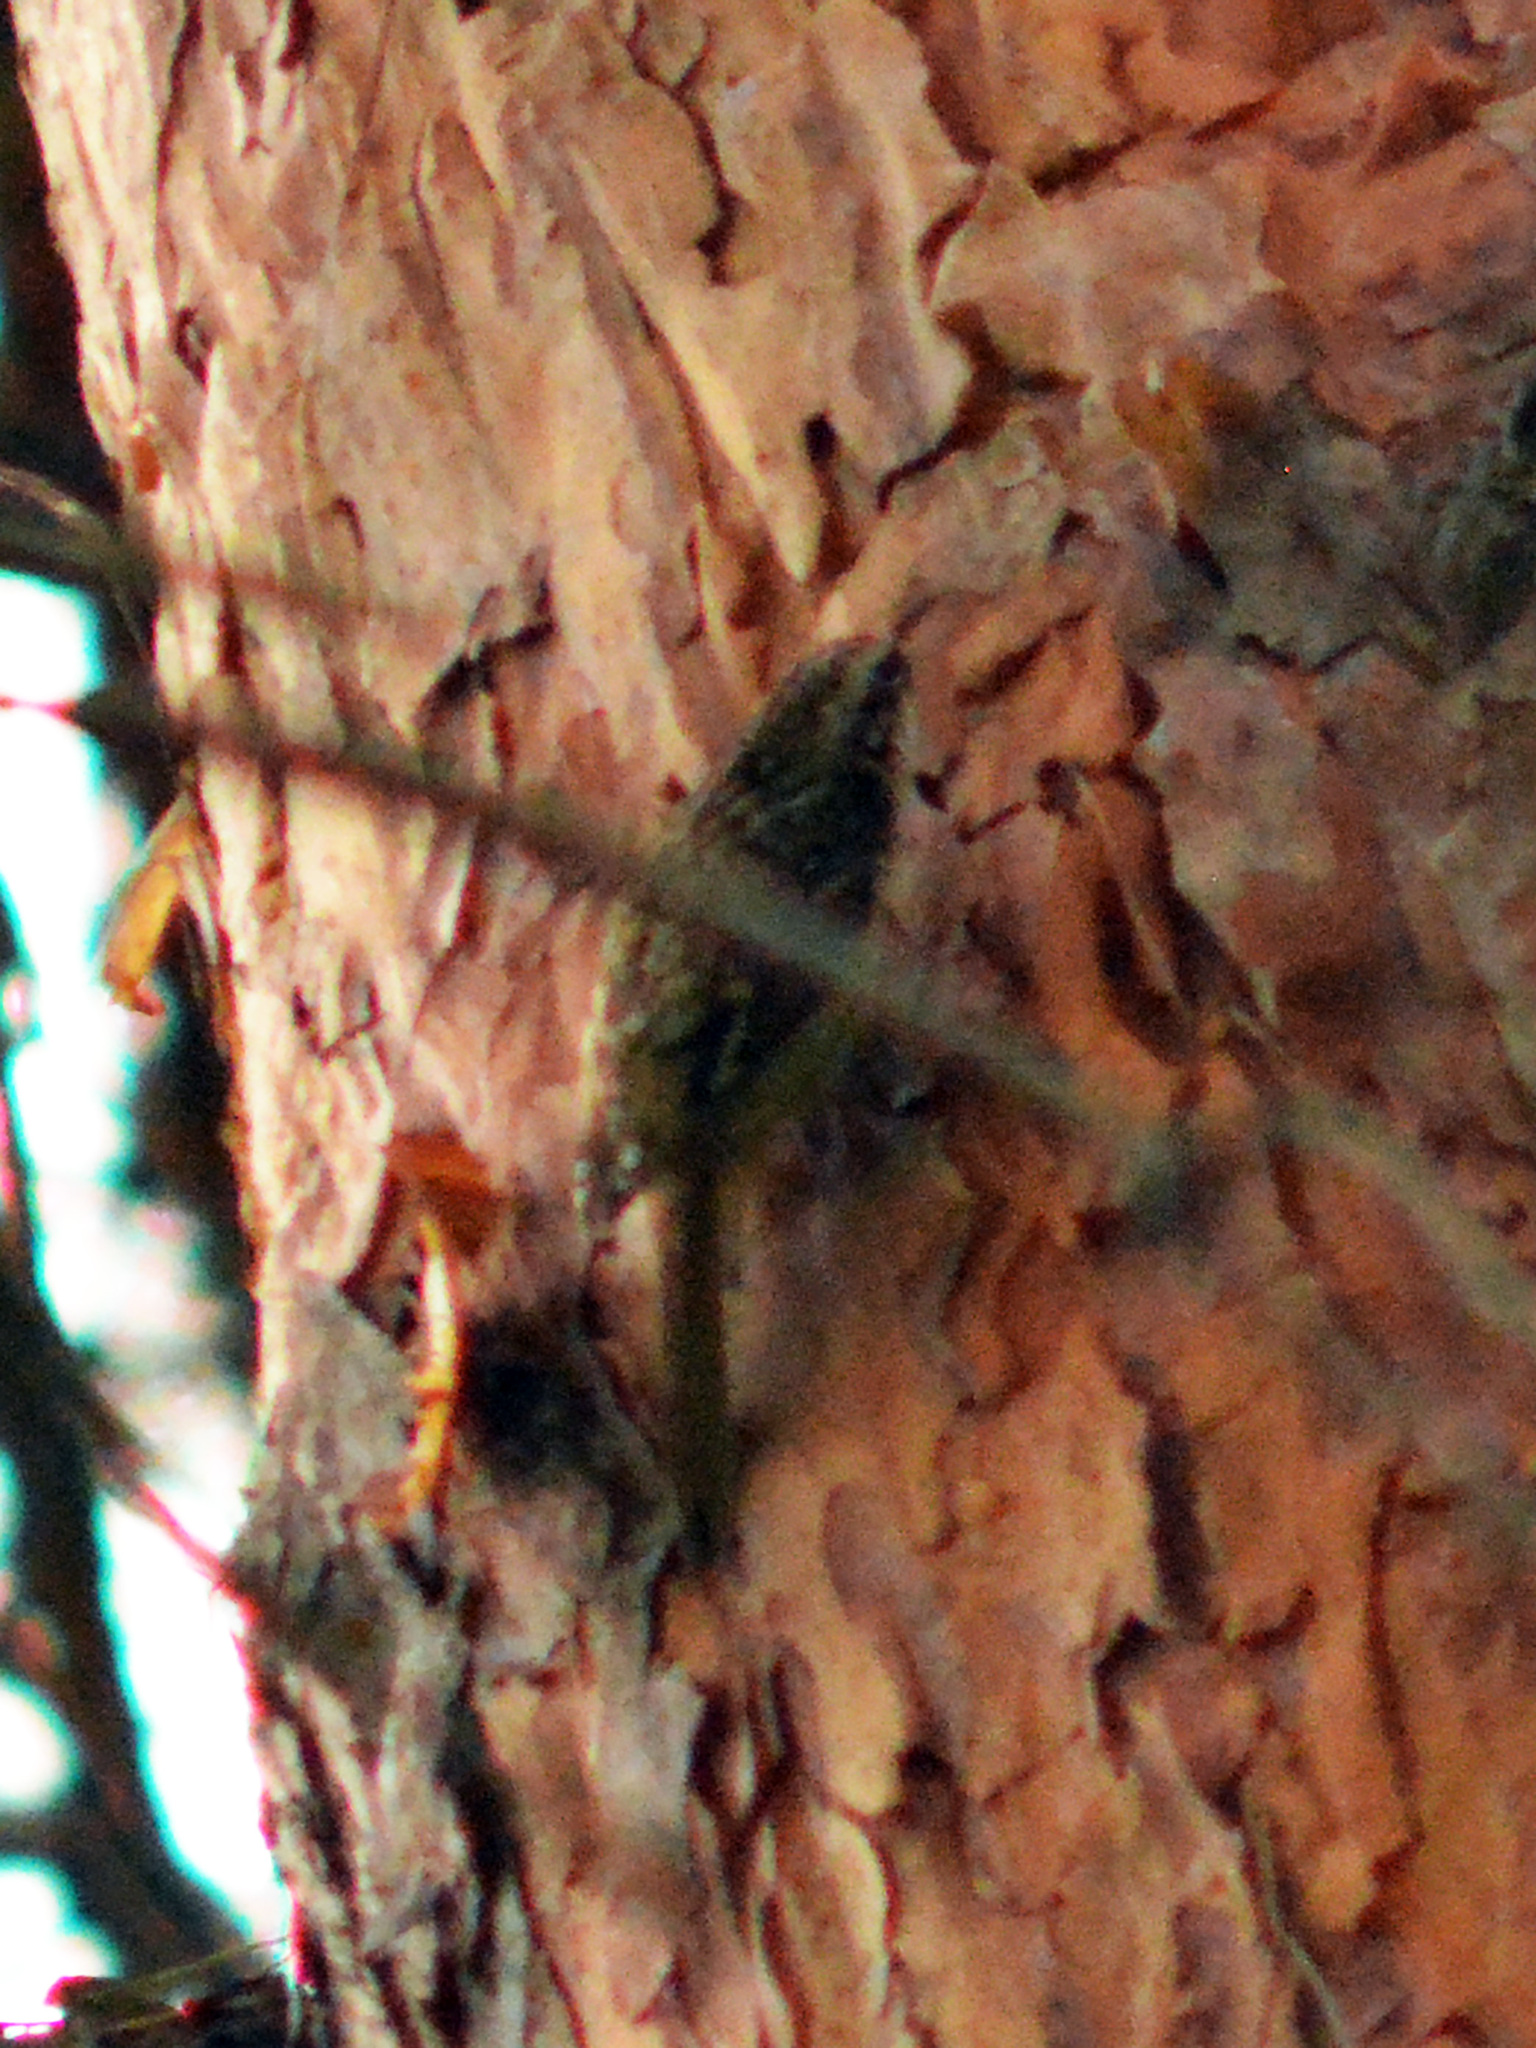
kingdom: Animalia
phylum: Chordata
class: Aves
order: Passeriformes
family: Certhiidae
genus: Certhia
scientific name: Certhia familiaris
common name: Eurasian treecreeper
